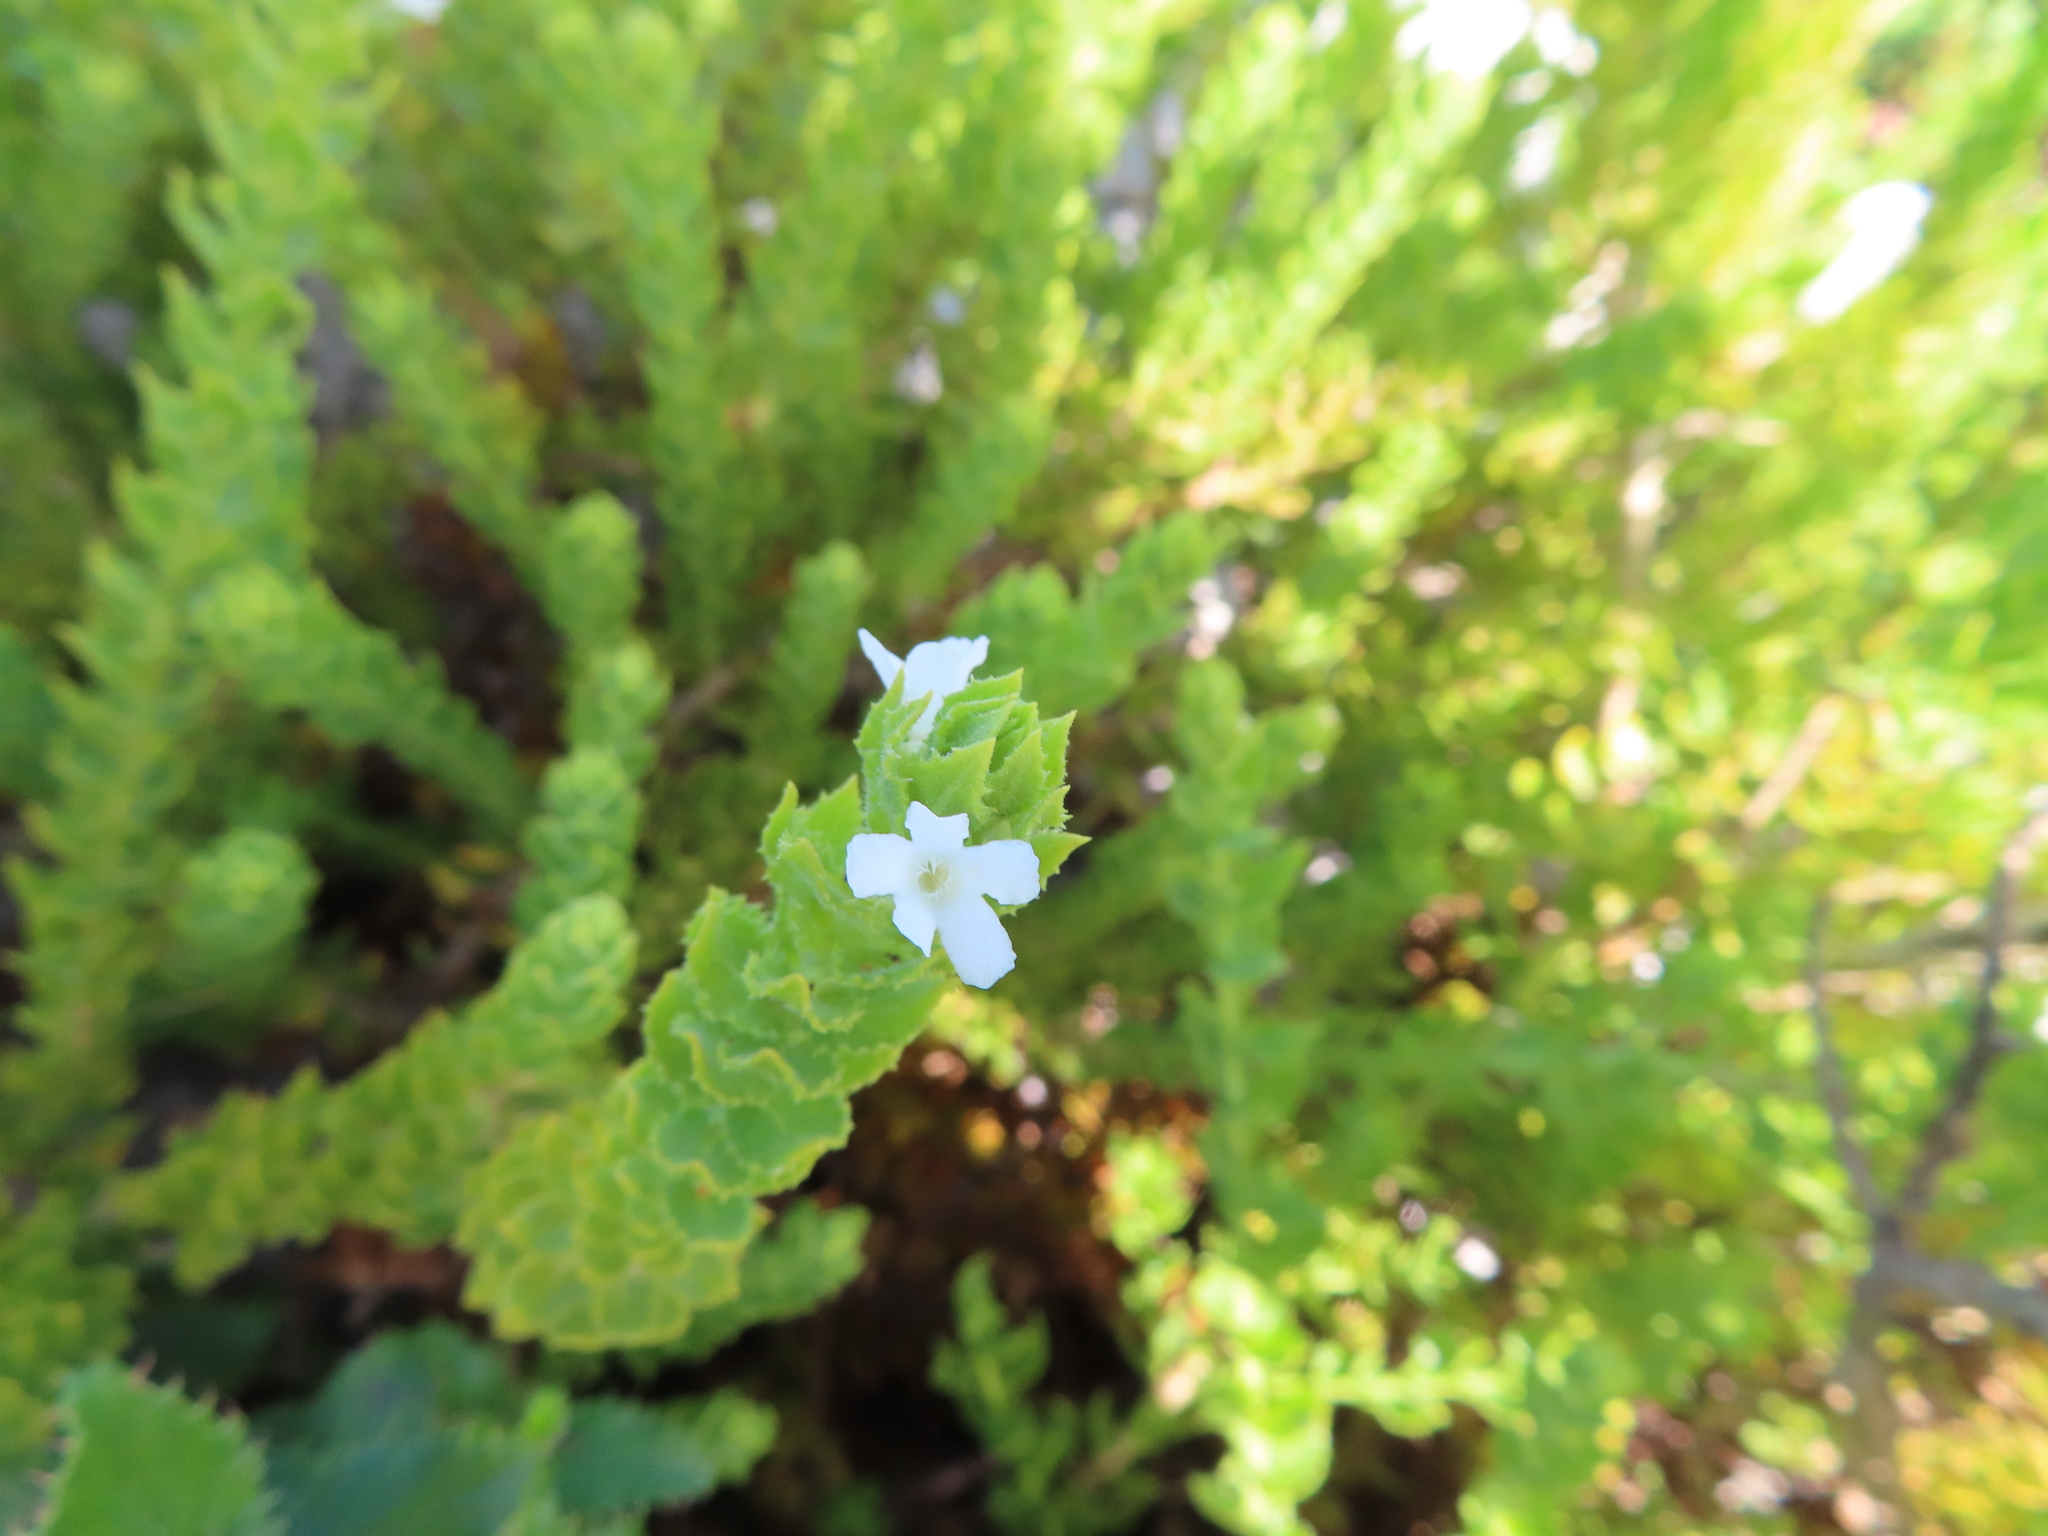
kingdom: Plantae
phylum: Tracheophyta
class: Magnoliopsida
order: Lamiales
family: Scrophulariaceae
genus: Oftia
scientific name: Oftia africana
